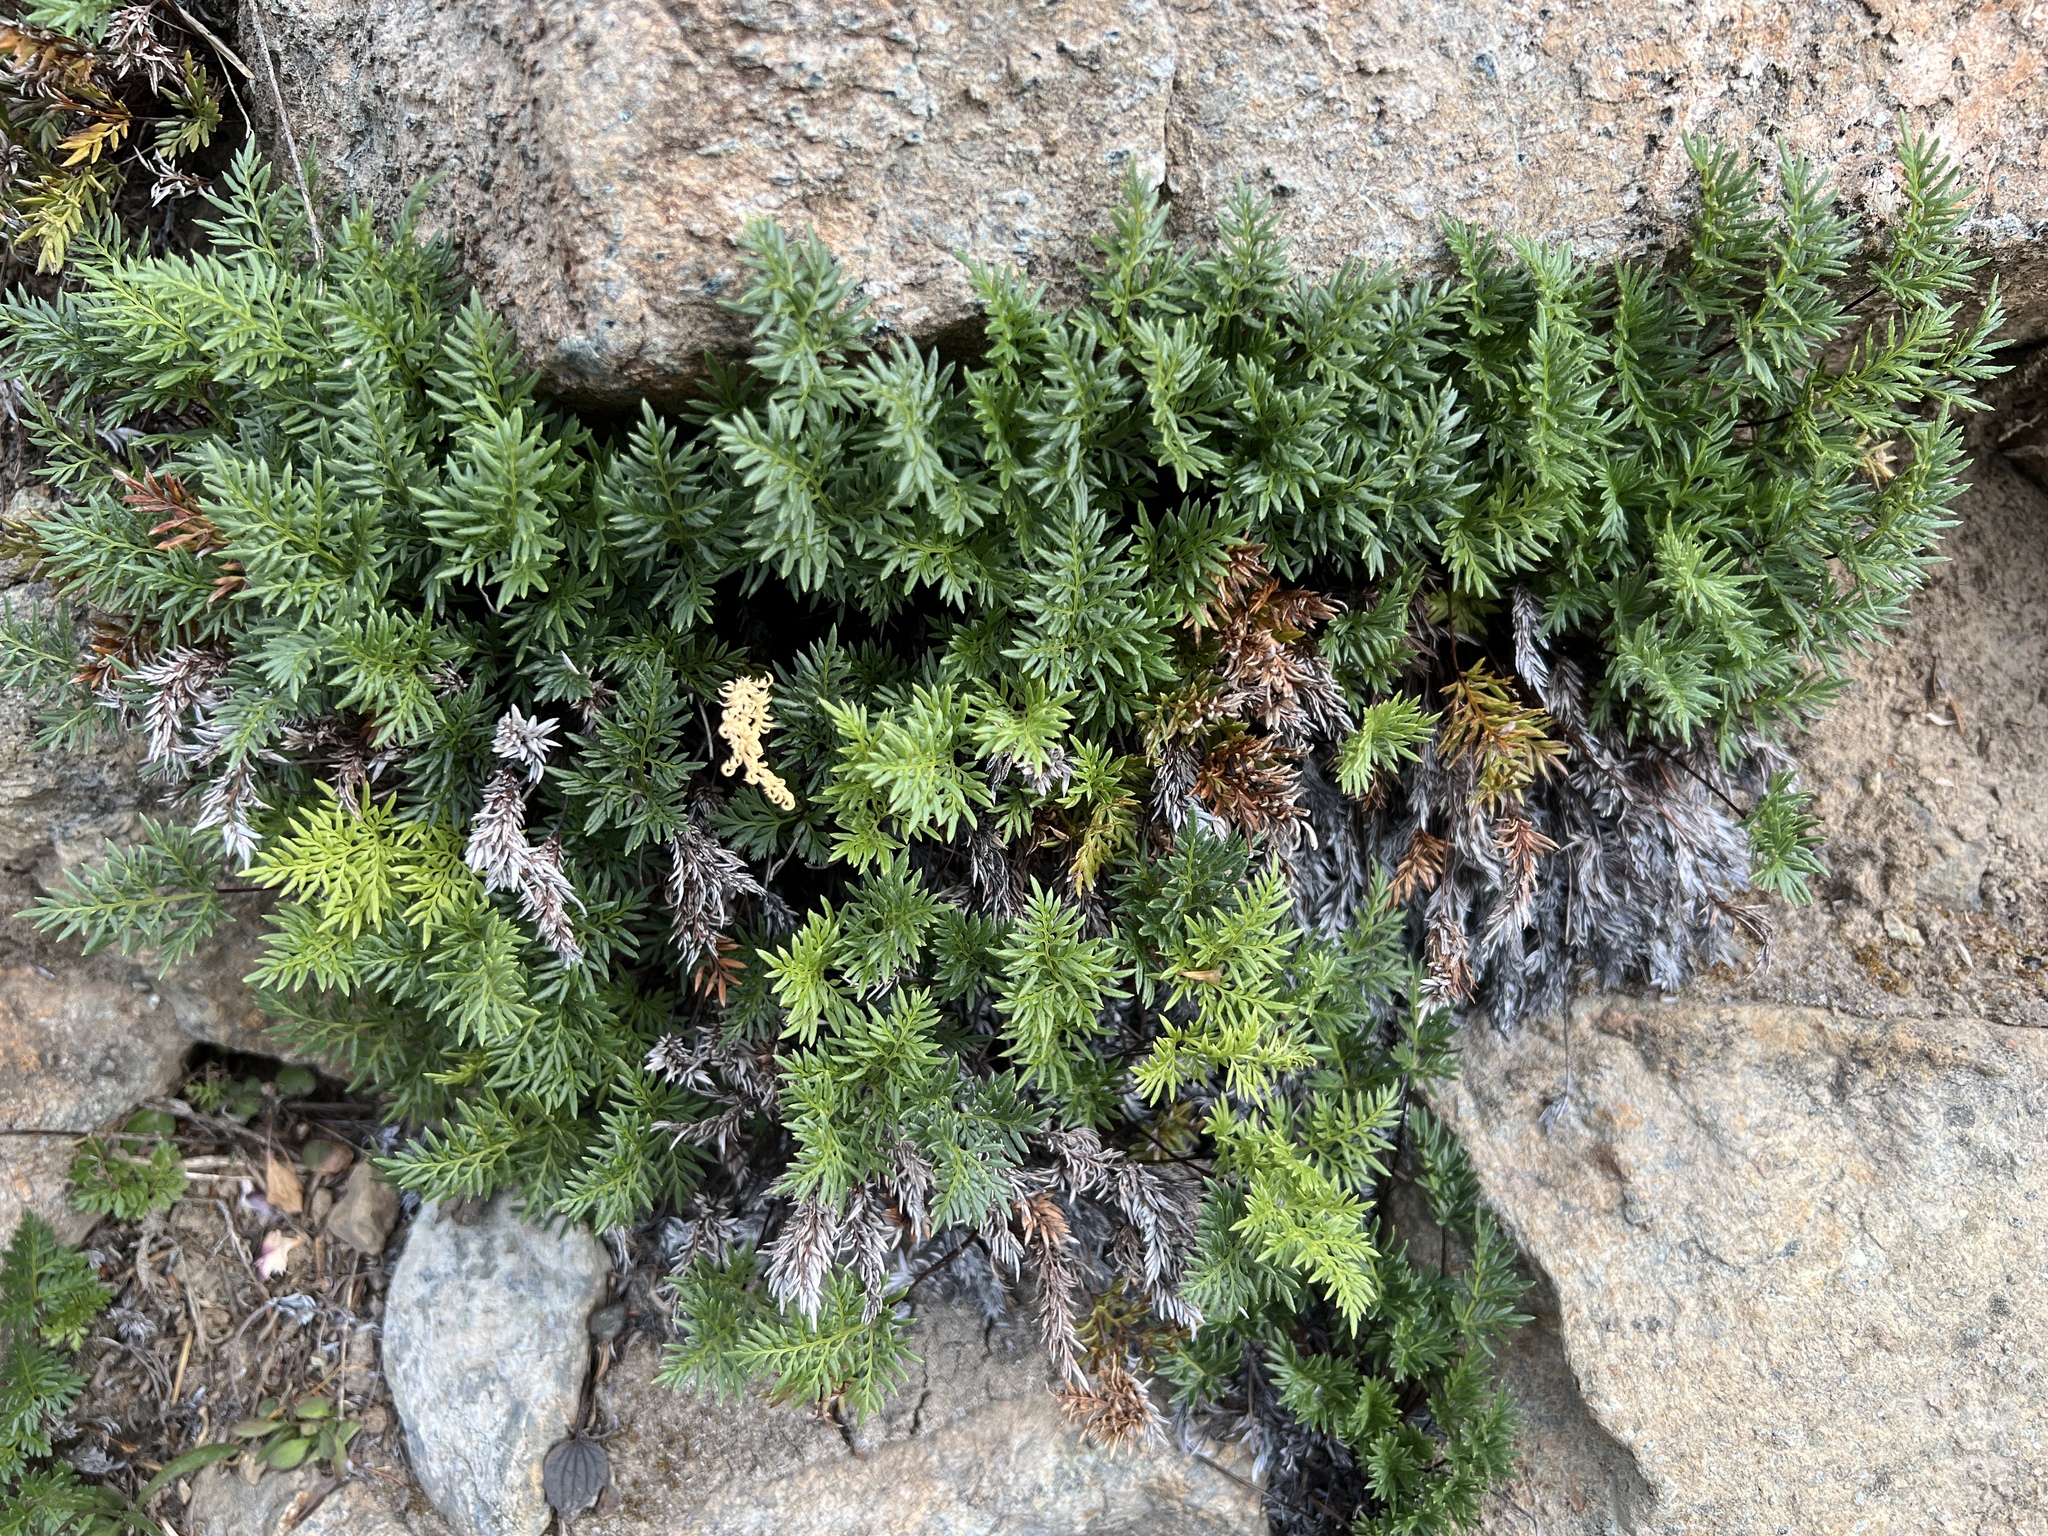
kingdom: Plantae
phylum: Tracheophyta
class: Polypodiopsida
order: Polypodiales
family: Pteridaceae
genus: Aspidotis
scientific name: Aspidotis densa
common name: Indian's dream
